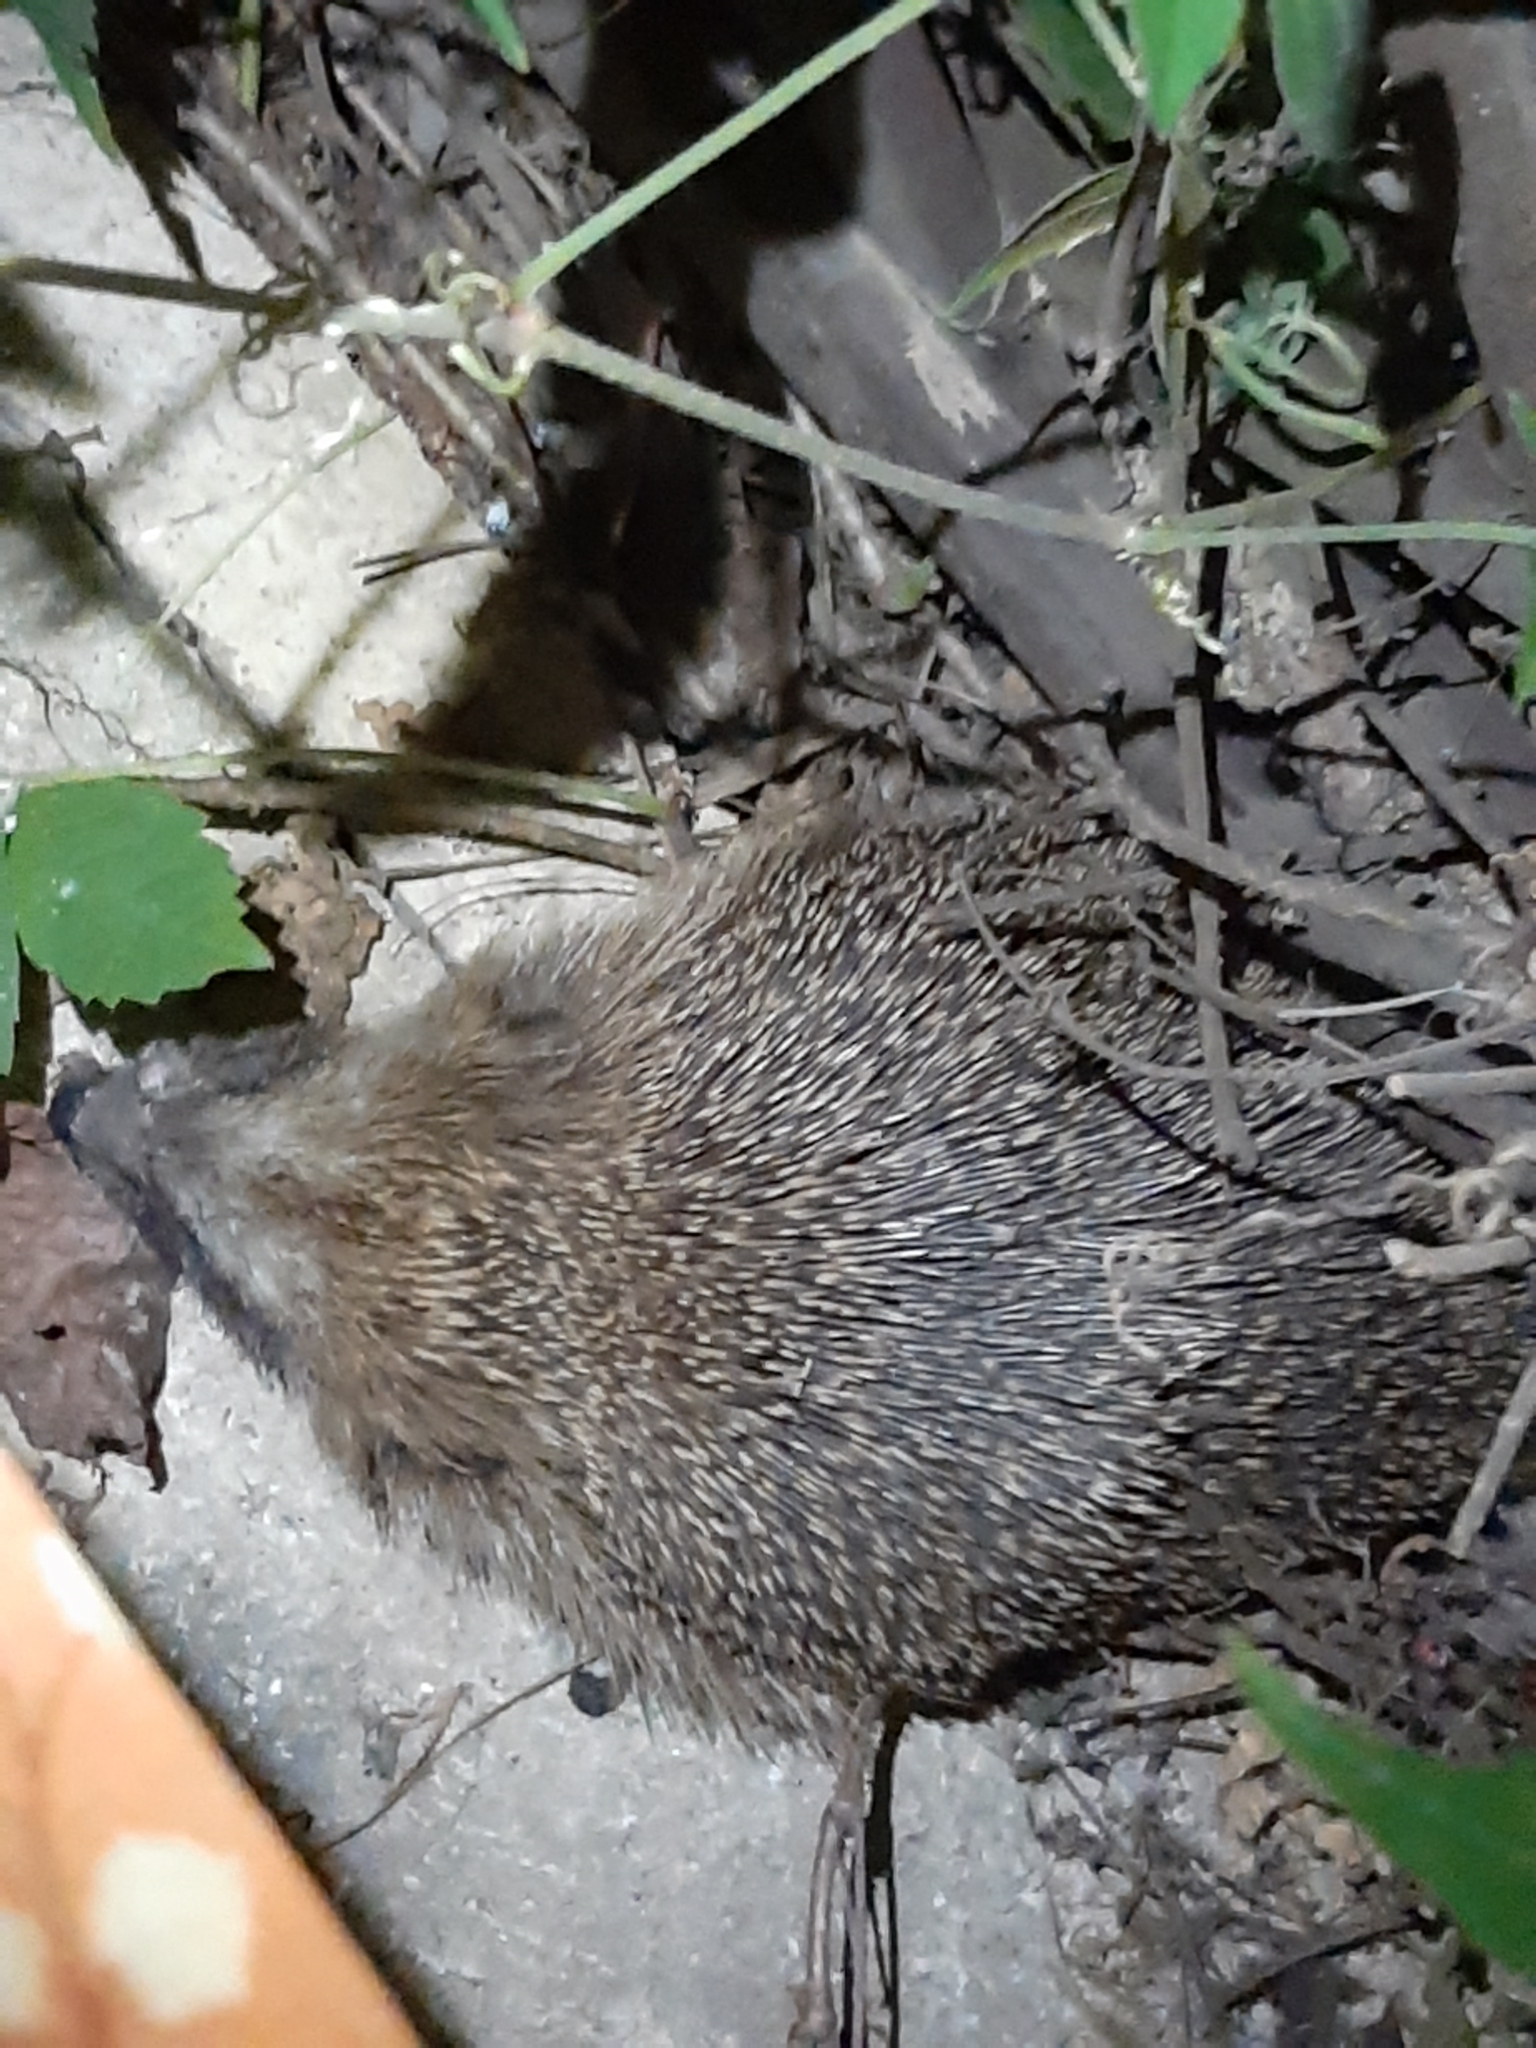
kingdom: Animalia
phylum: Chordata
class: Mammalia
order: Erinaceomorpha
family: Erinaceidae
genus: Erinaceus
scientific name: Erinaceus europaeus
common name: West european hedgehog
